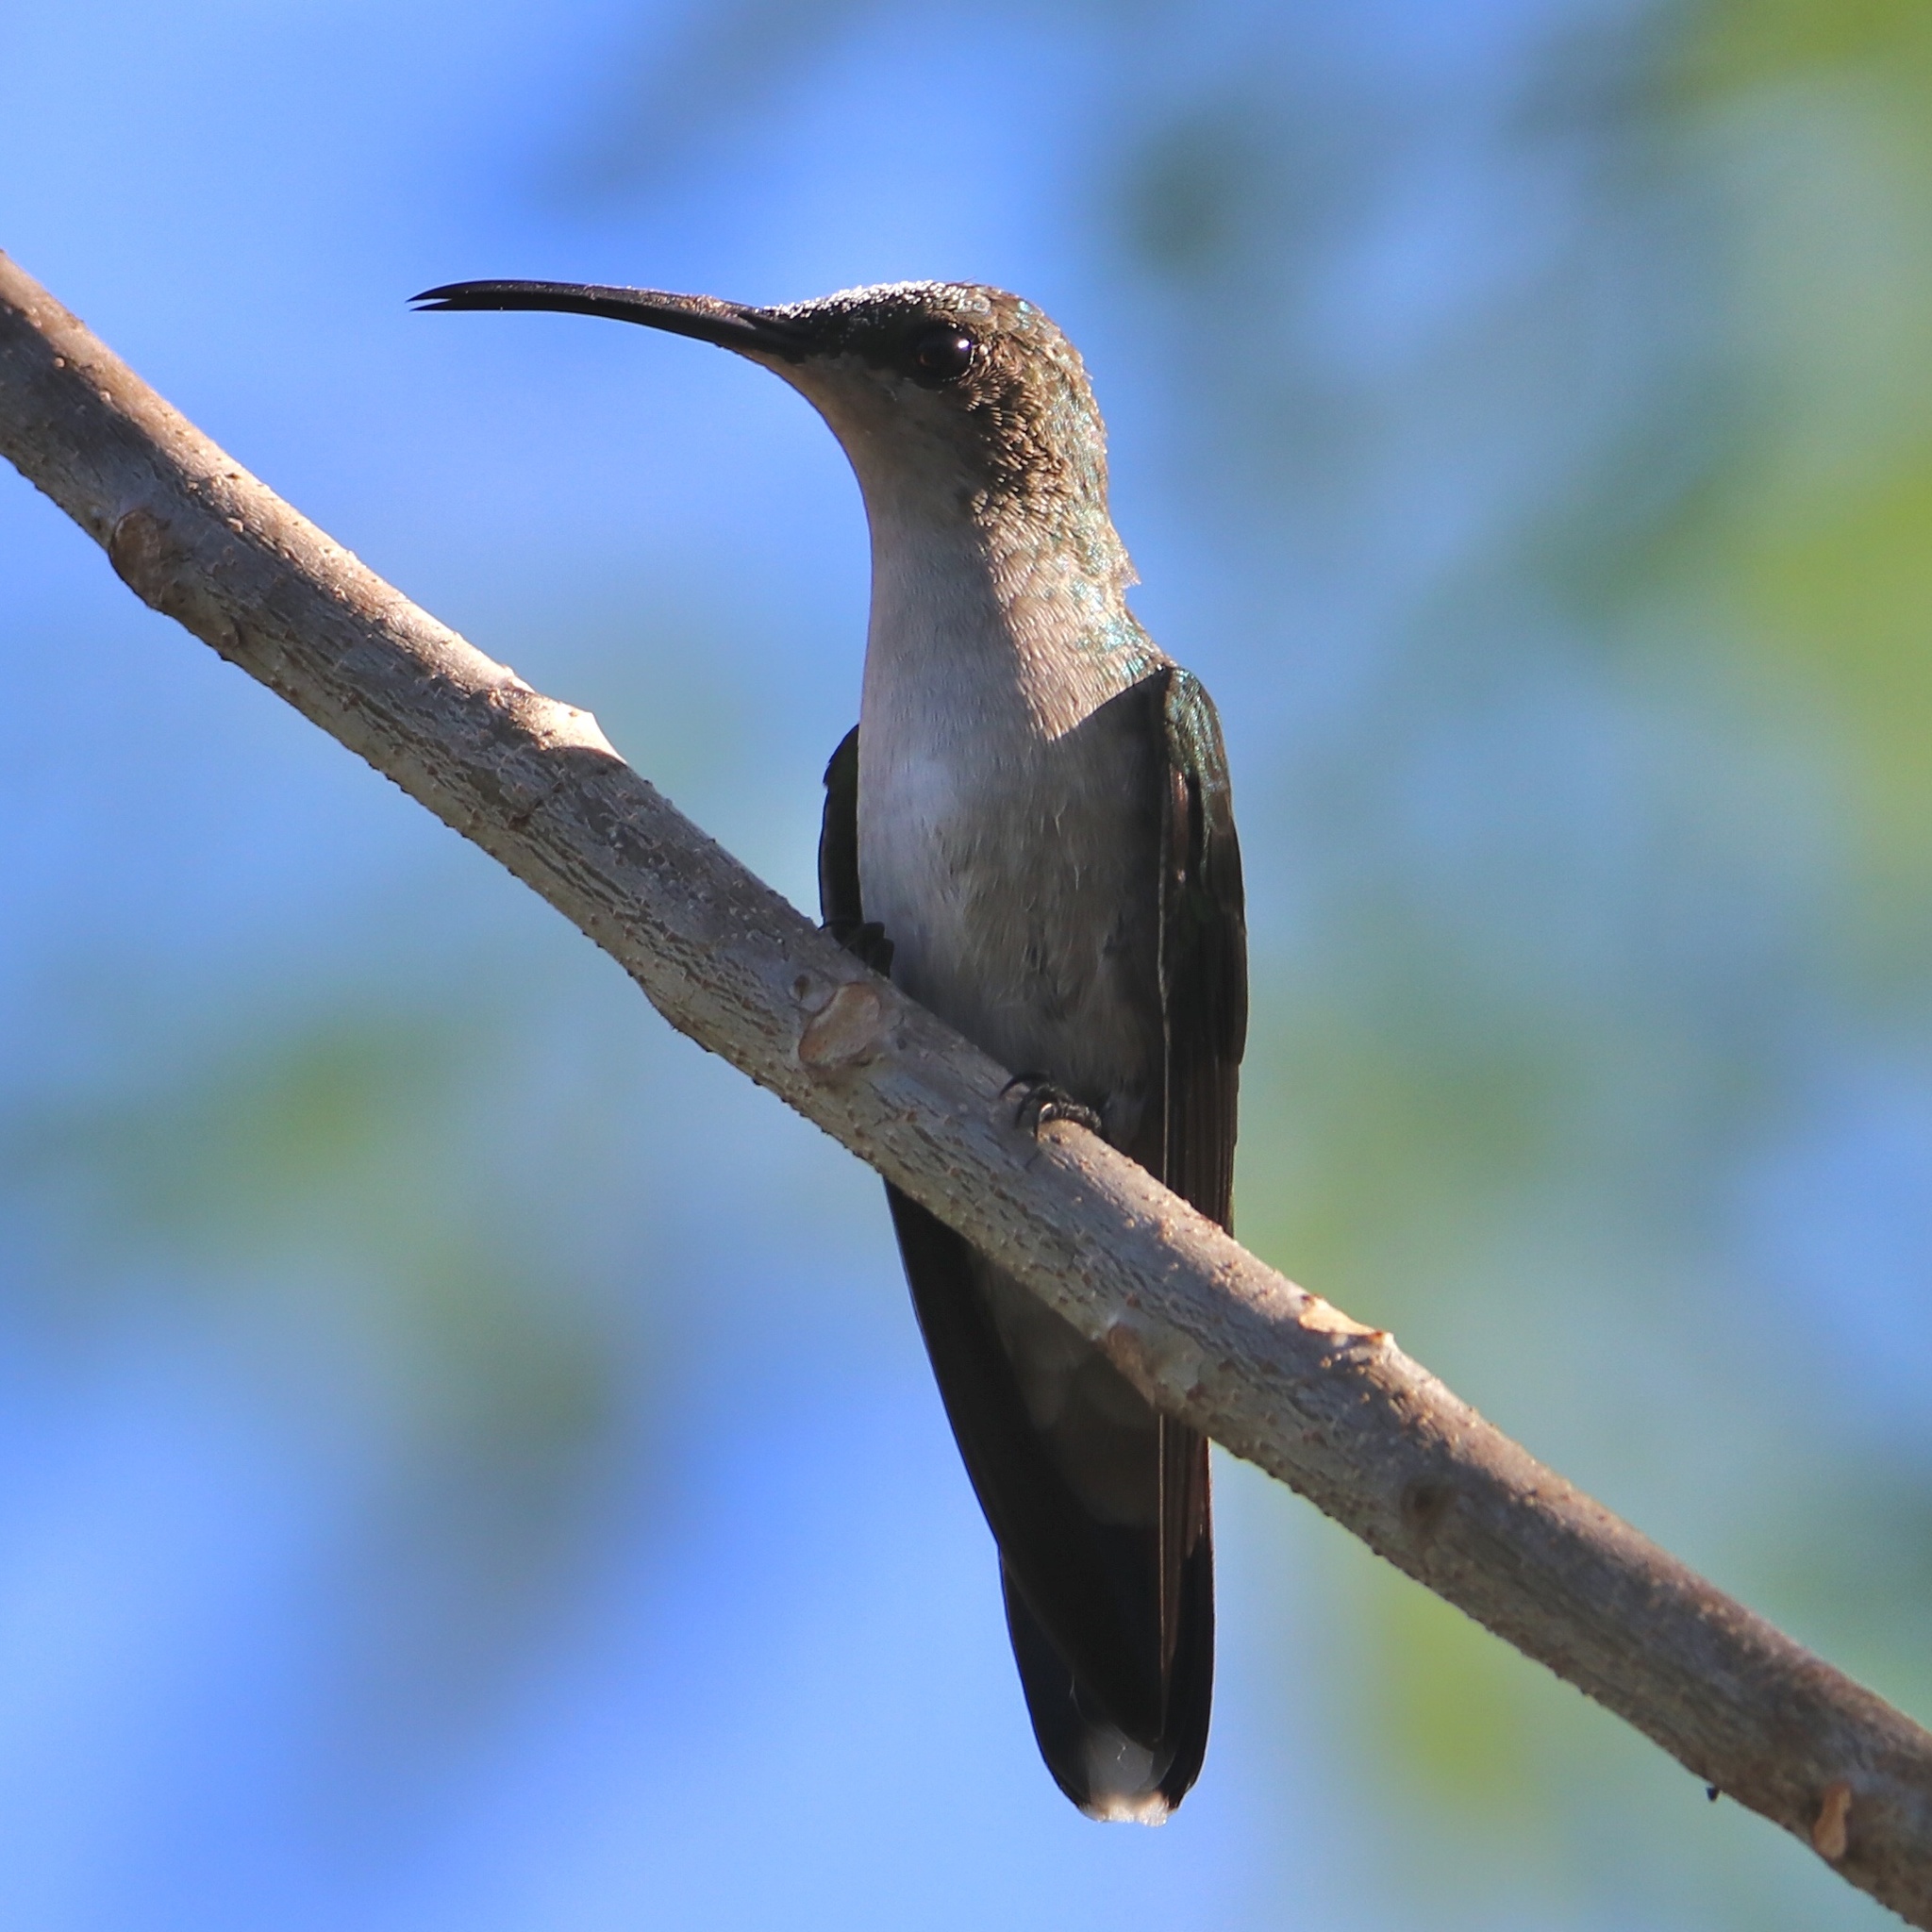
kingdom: Animalia
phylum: Chordata
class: Aves
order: Apodiformes
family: Trochilidae
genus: Anthracothorax
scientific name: Anthracothorax dominicus
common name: Antillean mango
